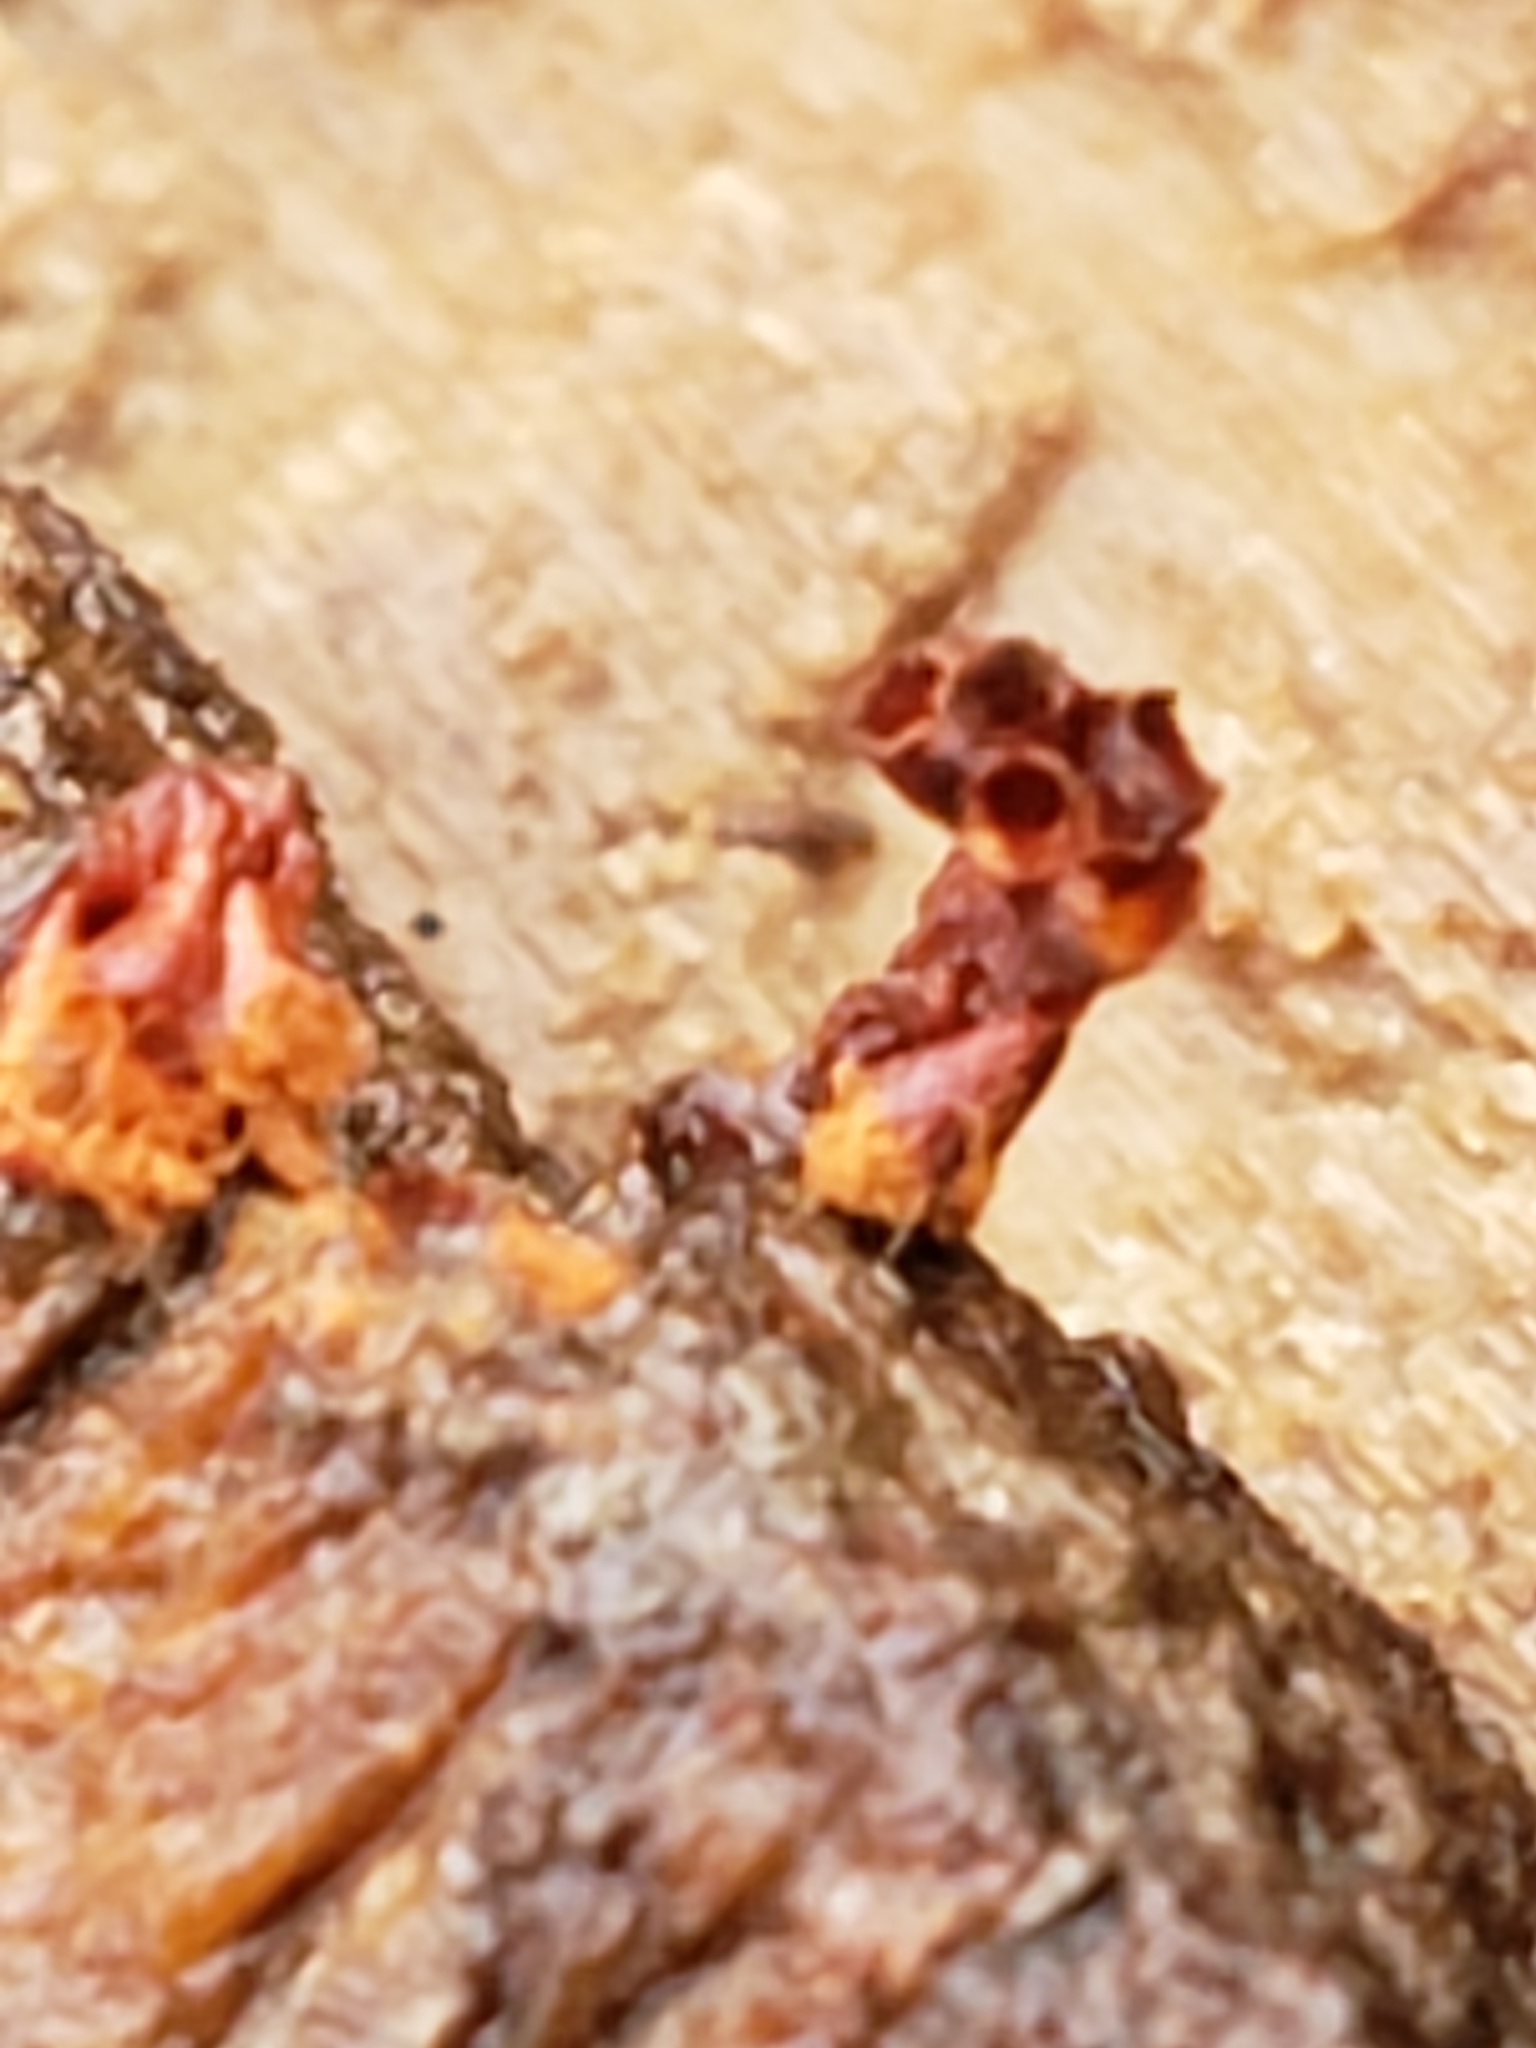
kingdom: Protozoa
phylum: Mycetozoa
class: Myxomycetes
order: Trichiales
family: Trichiaceae
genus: Metatrichia
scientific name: Metatrichia vesparia
